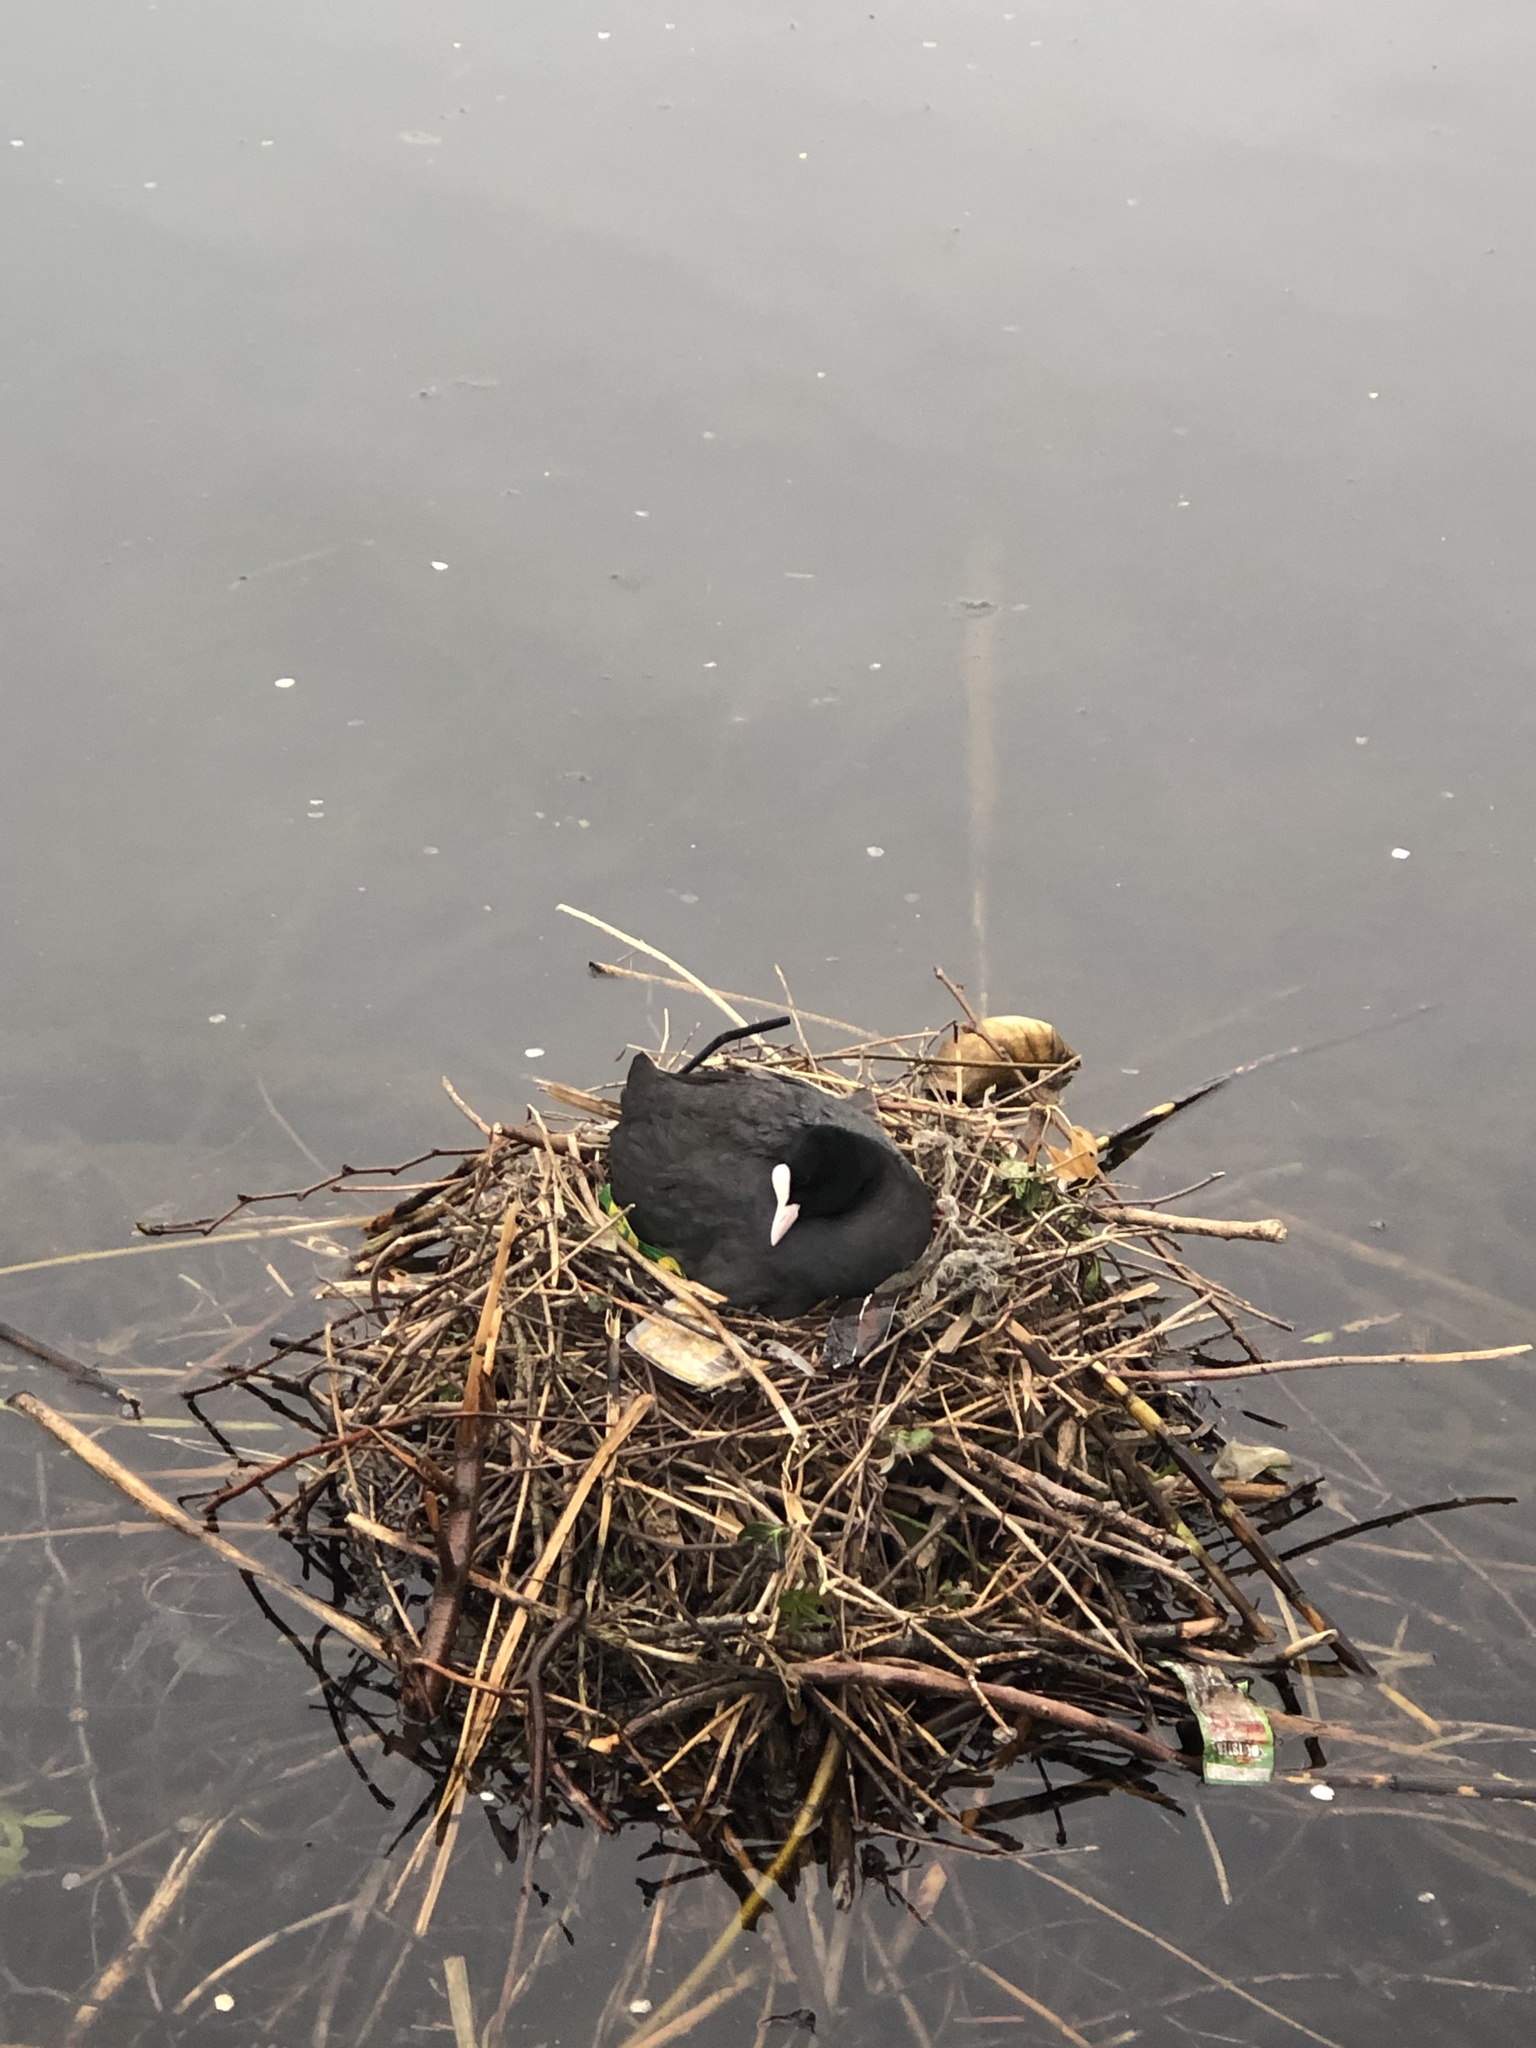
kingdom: Animalia
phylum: Chordata
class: Aves
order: Gruiformes
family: Rallidae
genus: Fulica
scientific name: Fulica atra
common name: Eurasian coot
